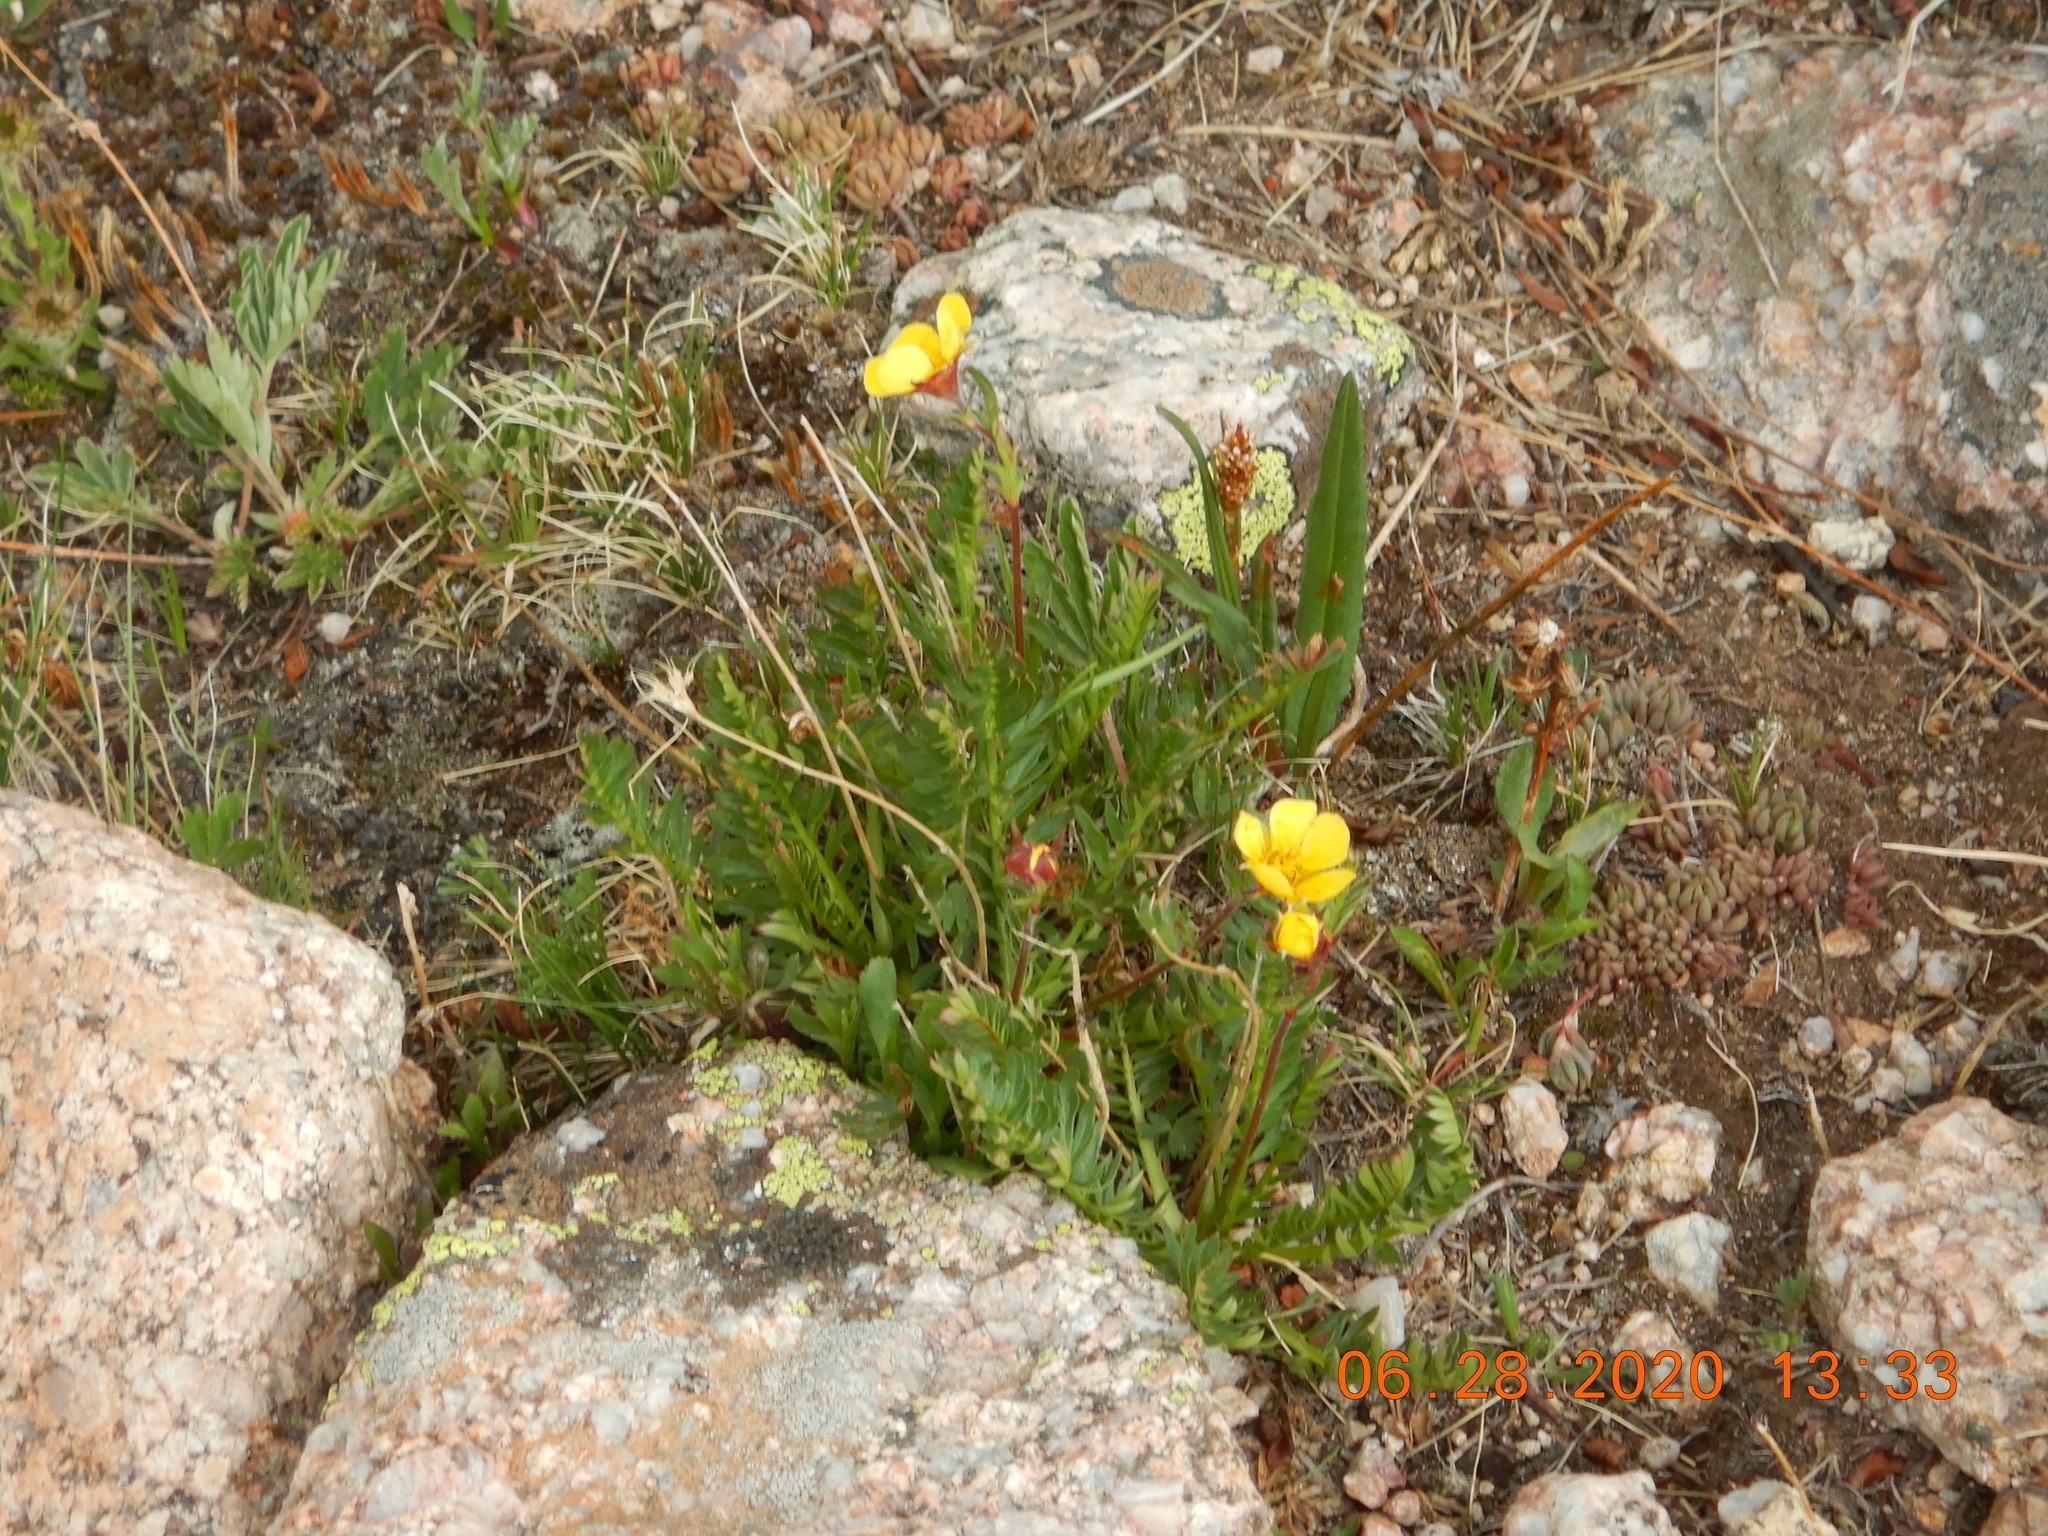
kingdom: Plantae
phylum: Tracheophyta
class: Magnoliopsida
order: Rosales
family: Rosaceae
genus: Geum
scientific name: Geum rossii
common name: Alpine avens
